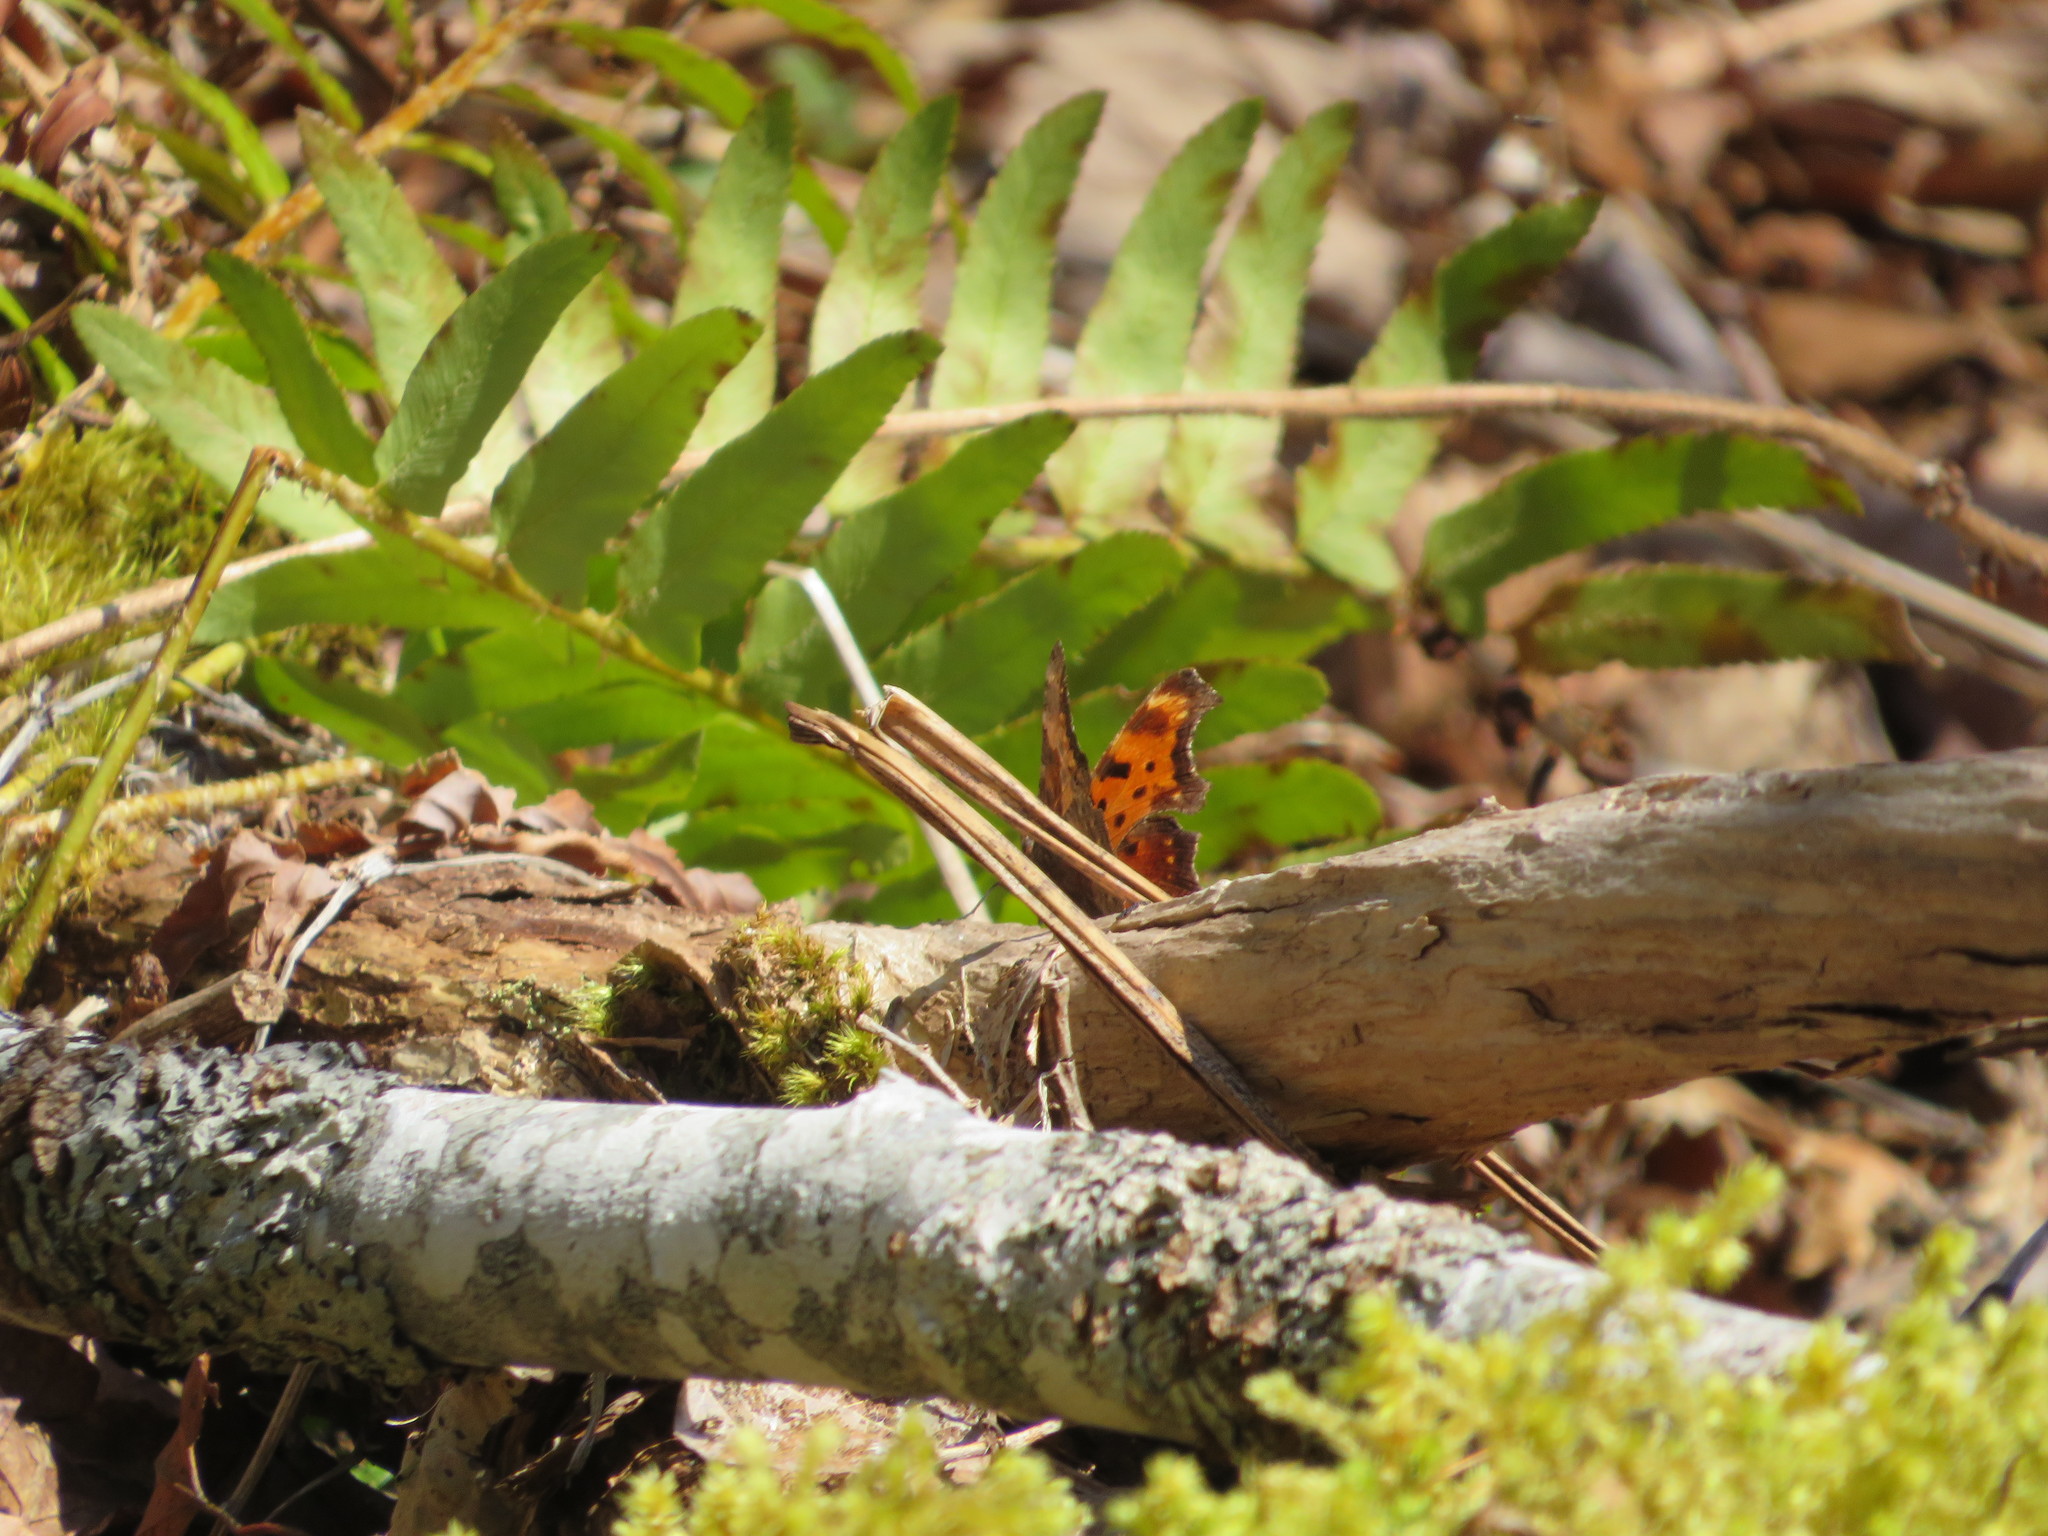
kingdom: Animalia
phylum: Arthropoda
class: Insecta
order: Lepidoptera
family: Nymphalidae
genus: Polygonia
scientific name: Polygonia progne
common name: Gray comma
